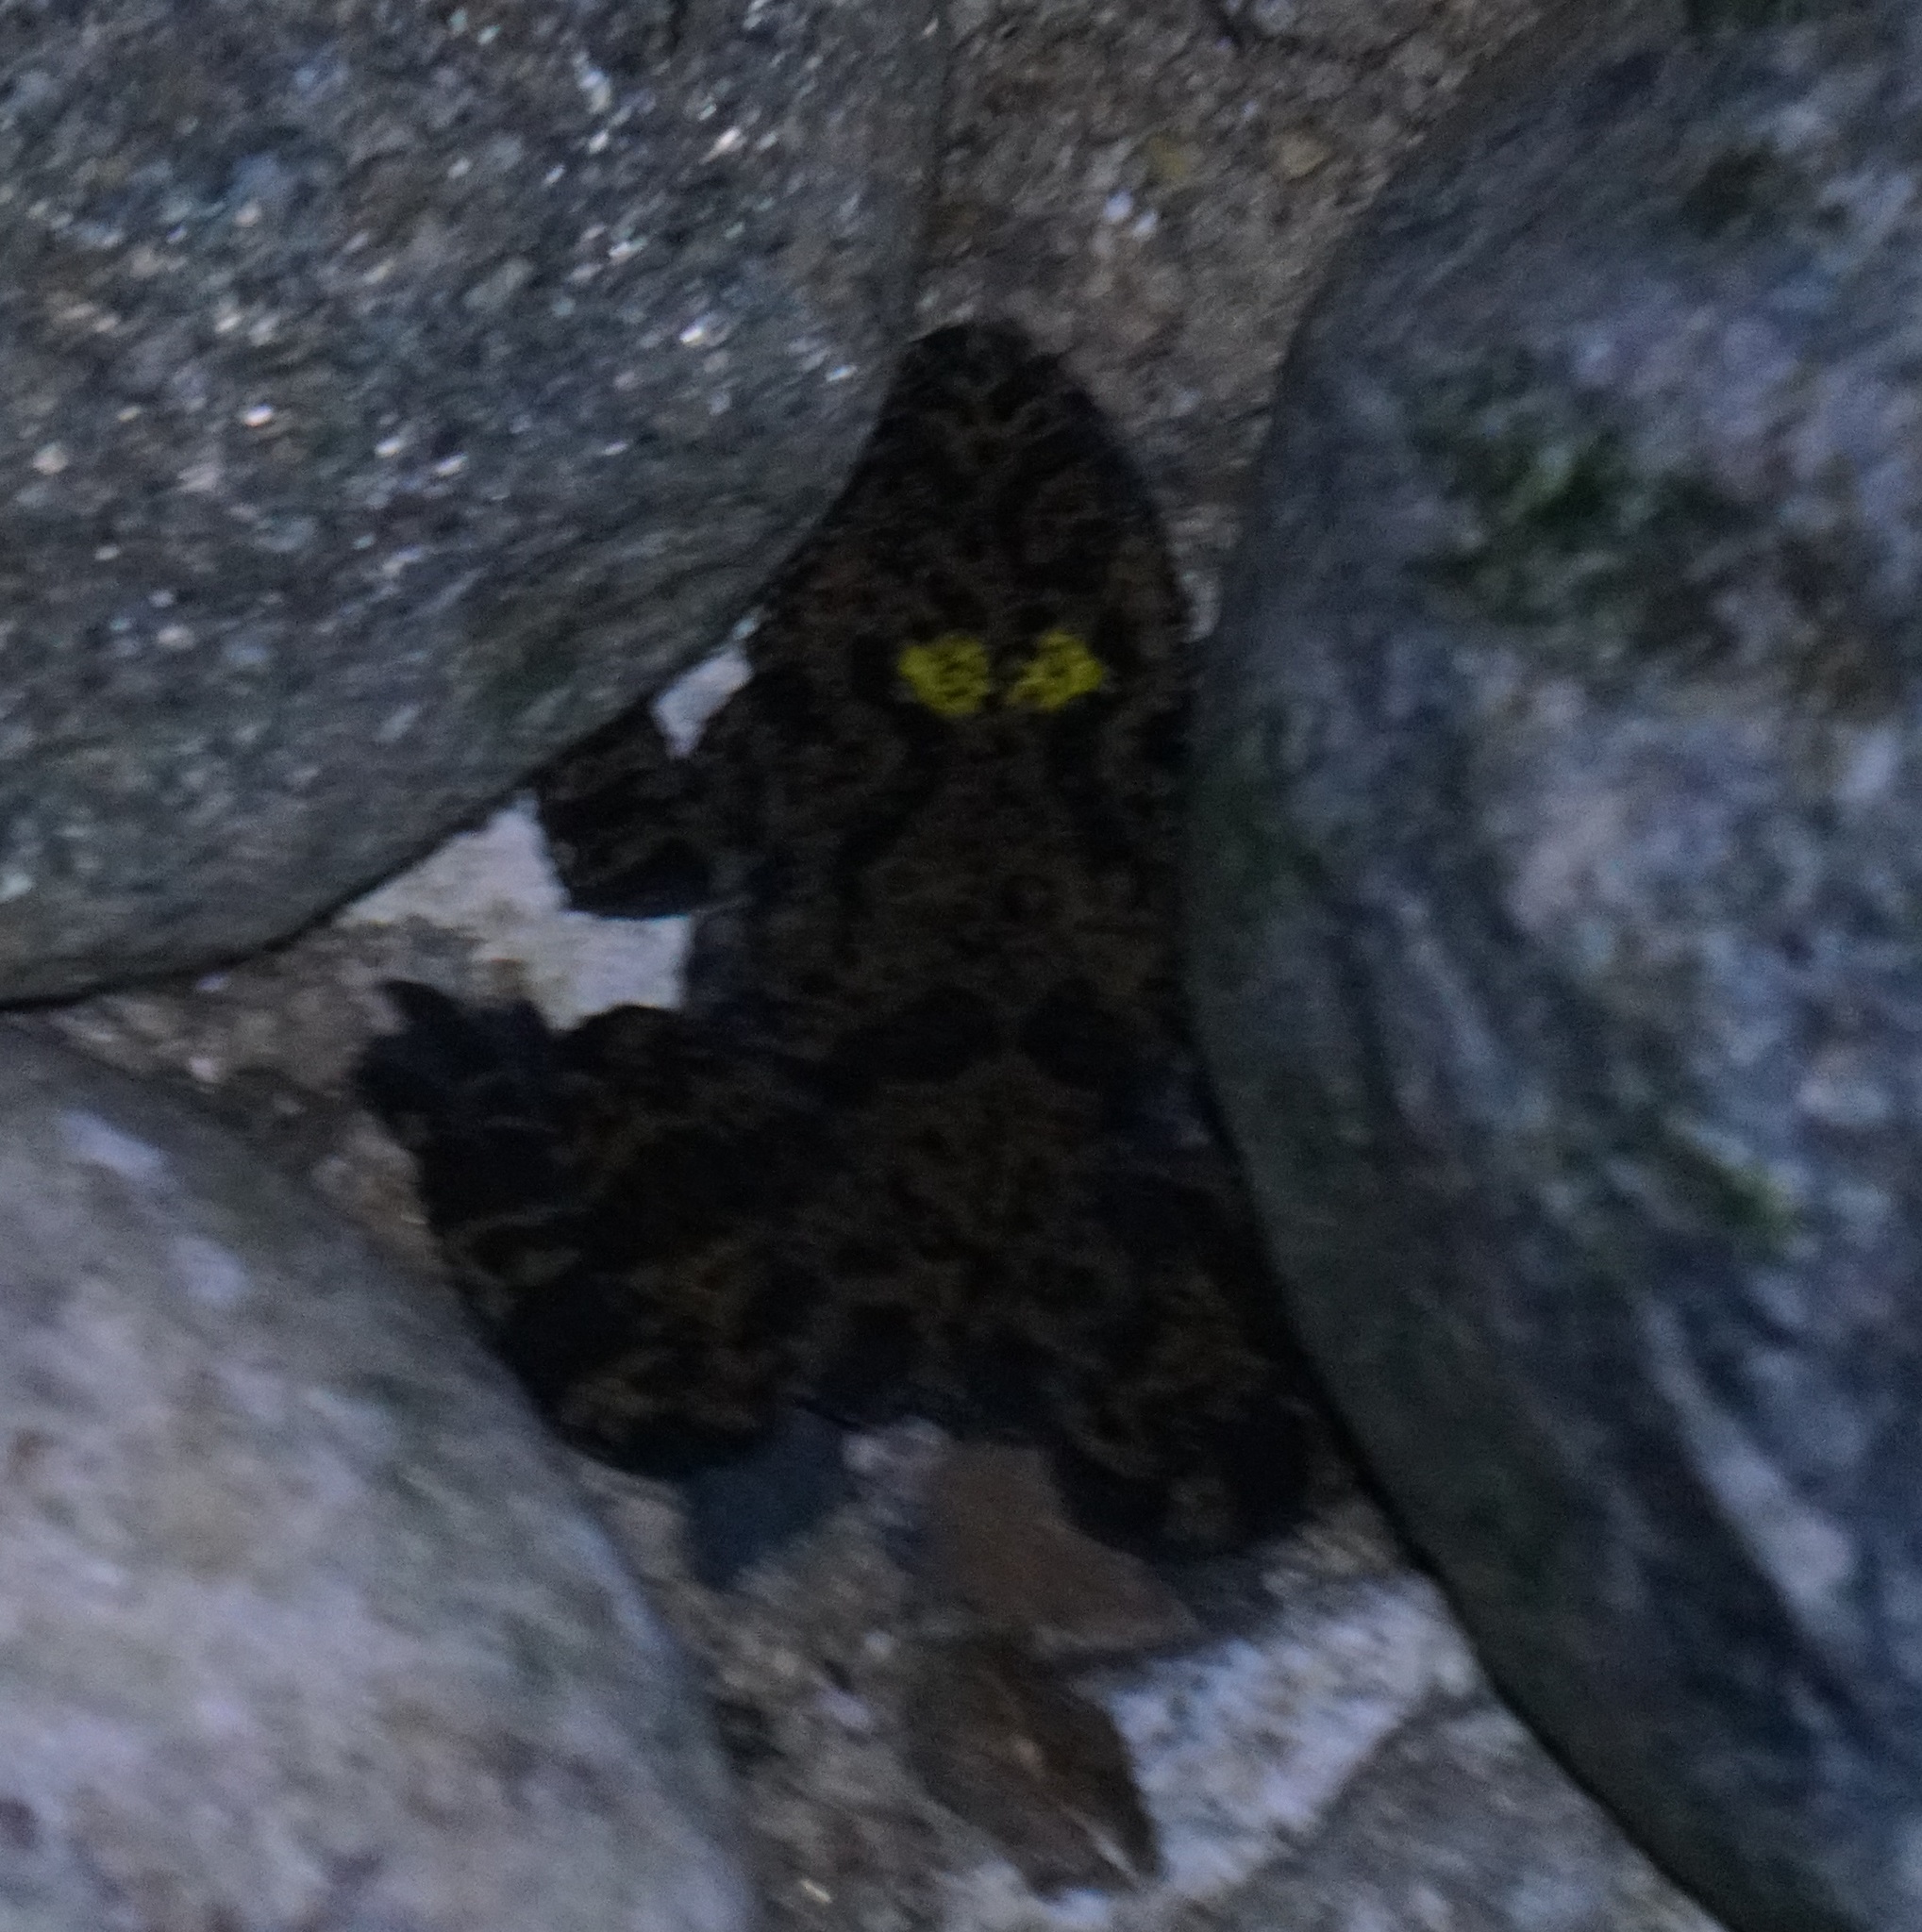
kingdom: Animalia
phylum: Chordata
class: Amphibia
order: Anura
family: Bombinatoridae
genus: Bombina
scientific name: Bombina orientalis
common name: Oriental firebelly toad
